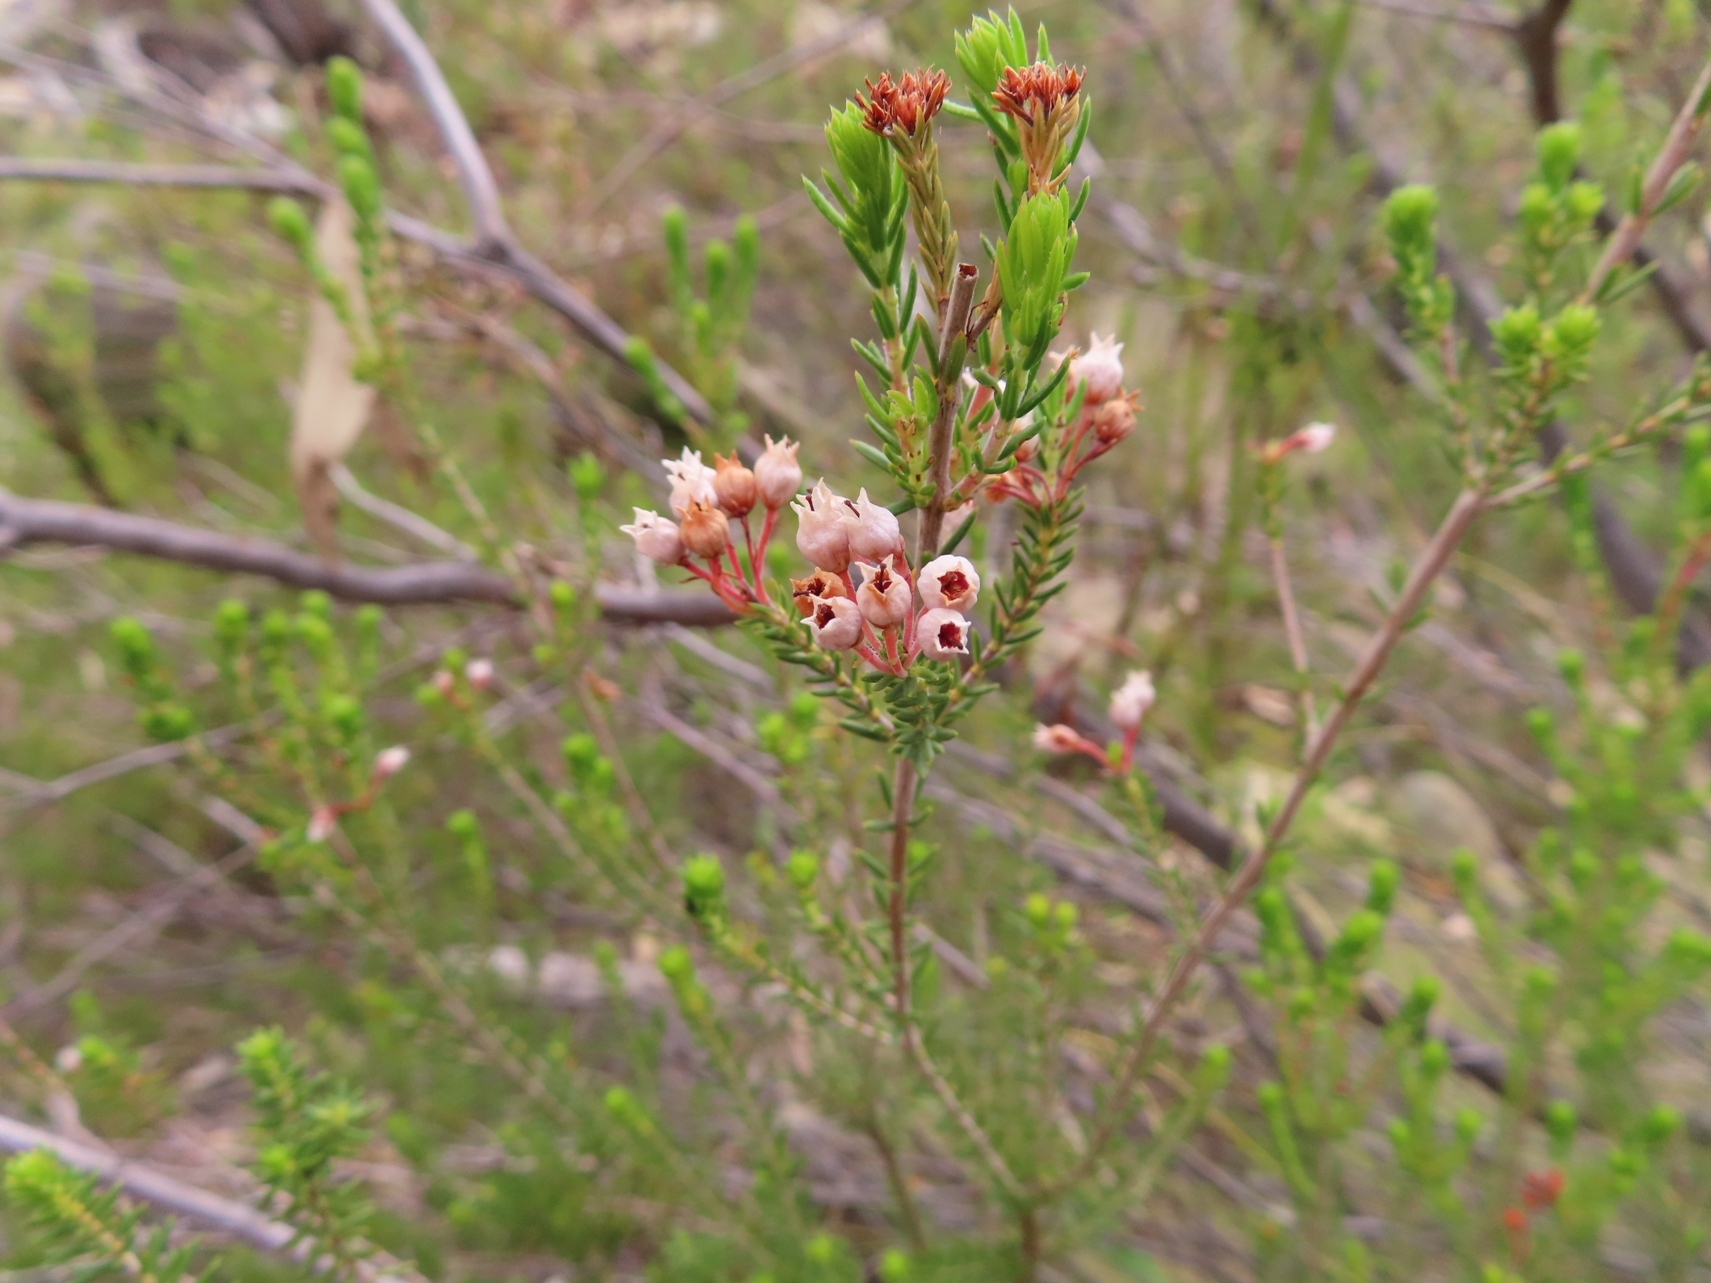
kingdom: Plantae
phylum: Tracheophyta
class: Magnoliopsida
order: Ericales
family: Ericaceae
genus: Erica
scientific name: Erica verecunda
